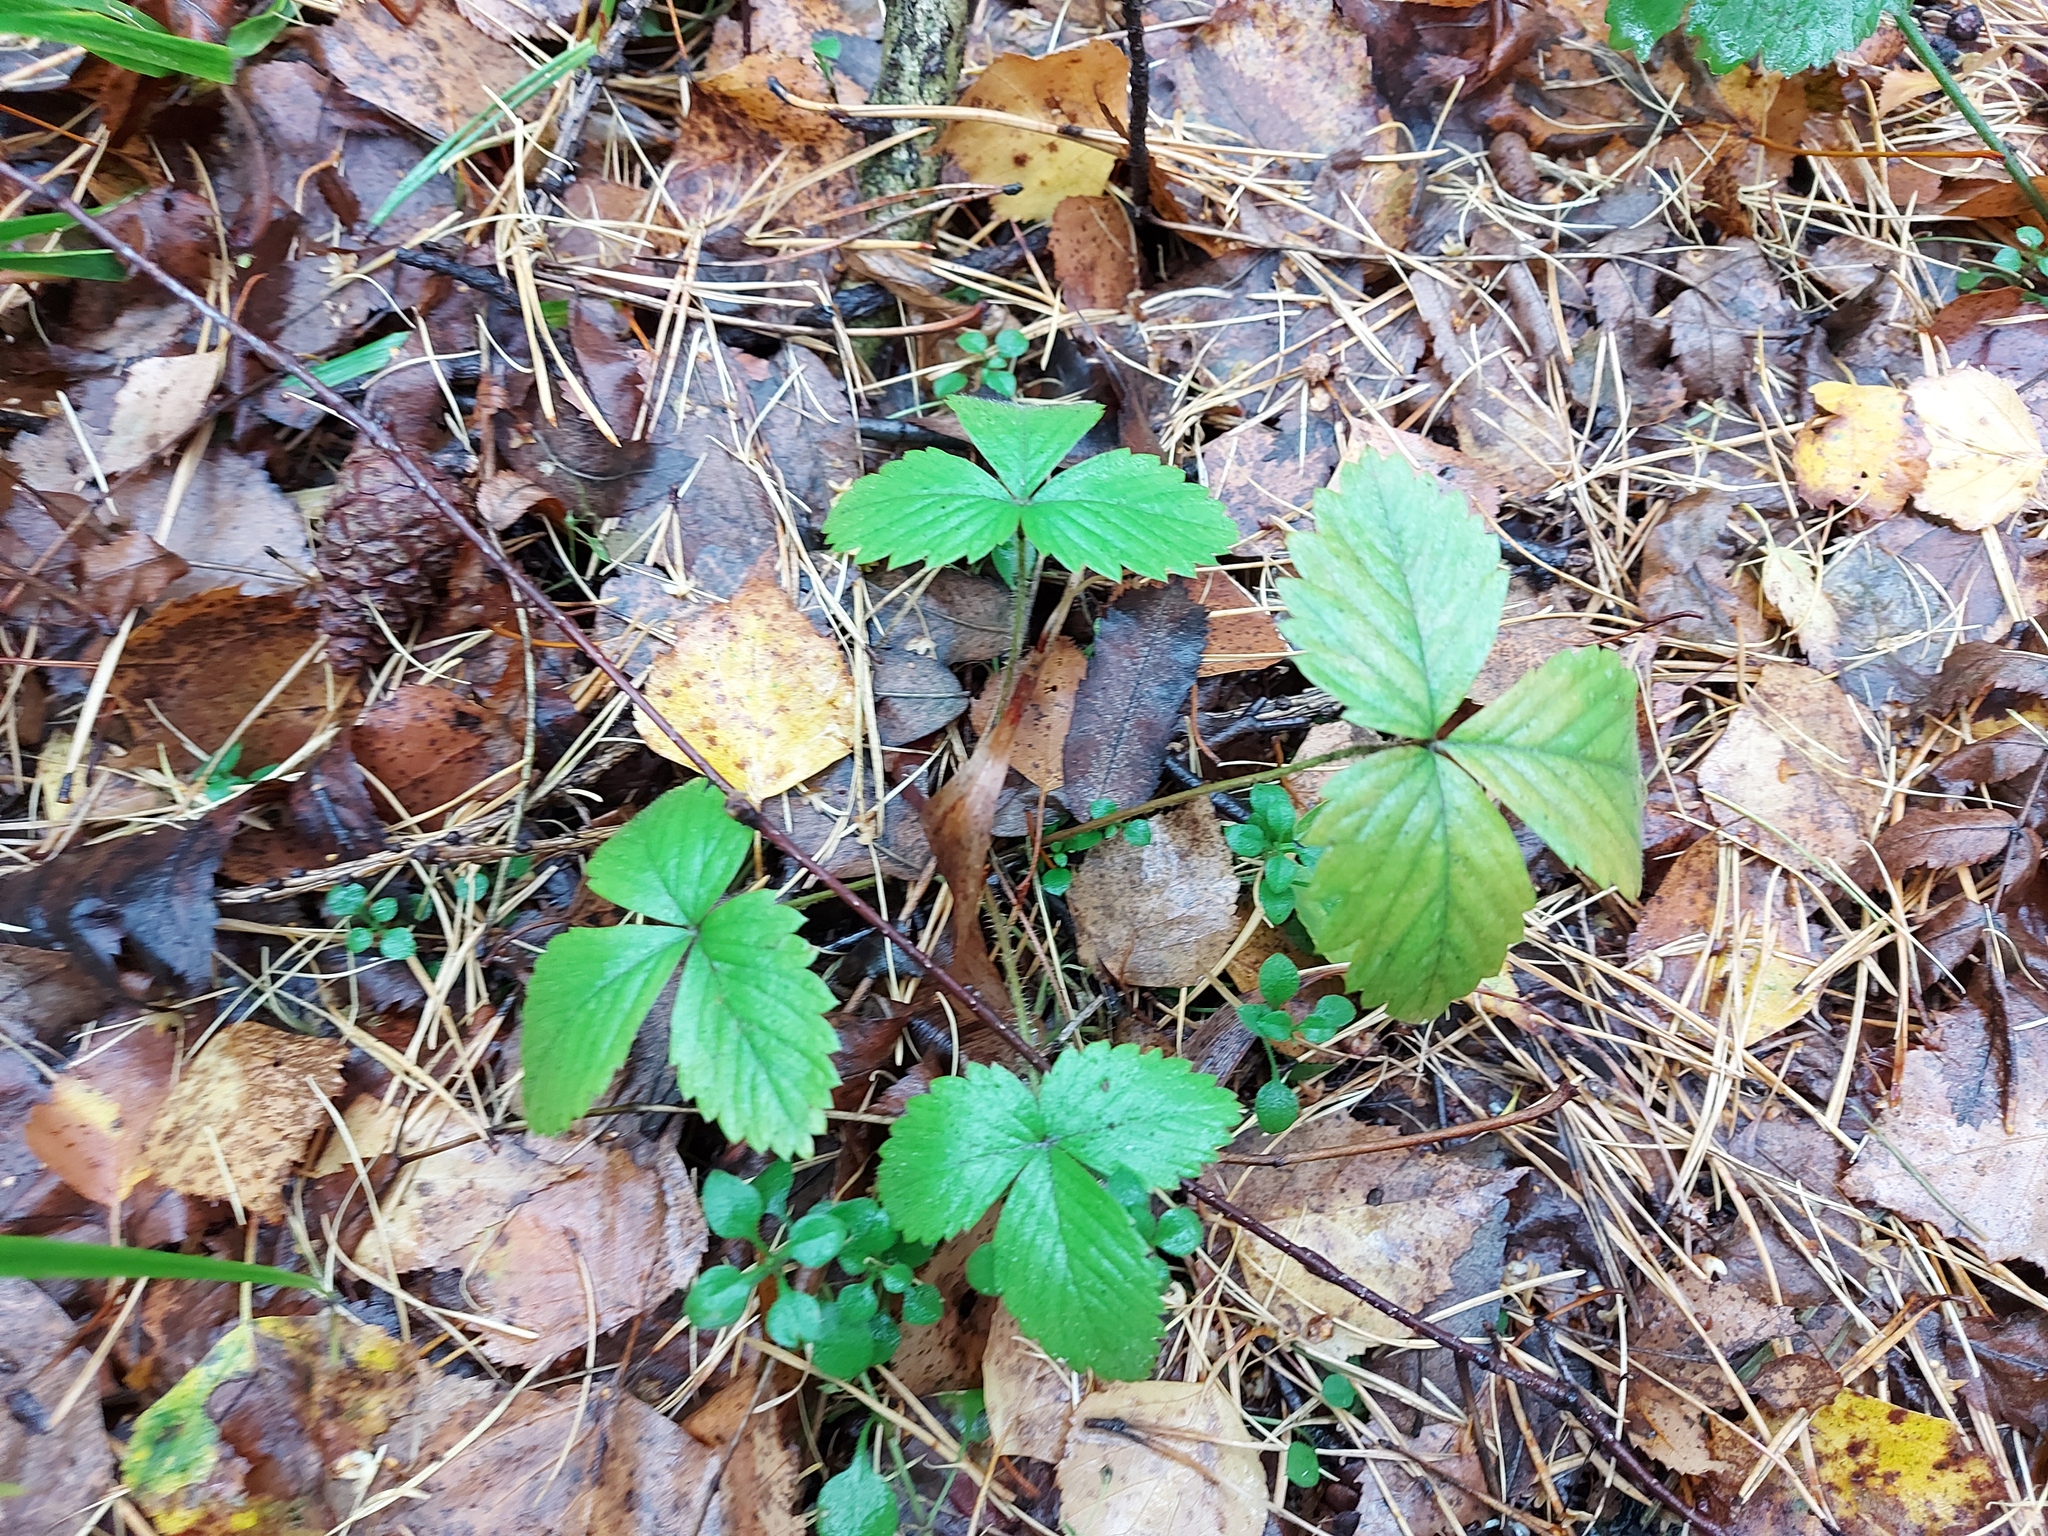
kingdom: Plantae
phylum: Tracheophyta
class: Magnoliopsida
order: Rosales
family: Rosaceae
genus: Fragaria
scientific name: Fragaria vesca
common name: Wild strawberry
